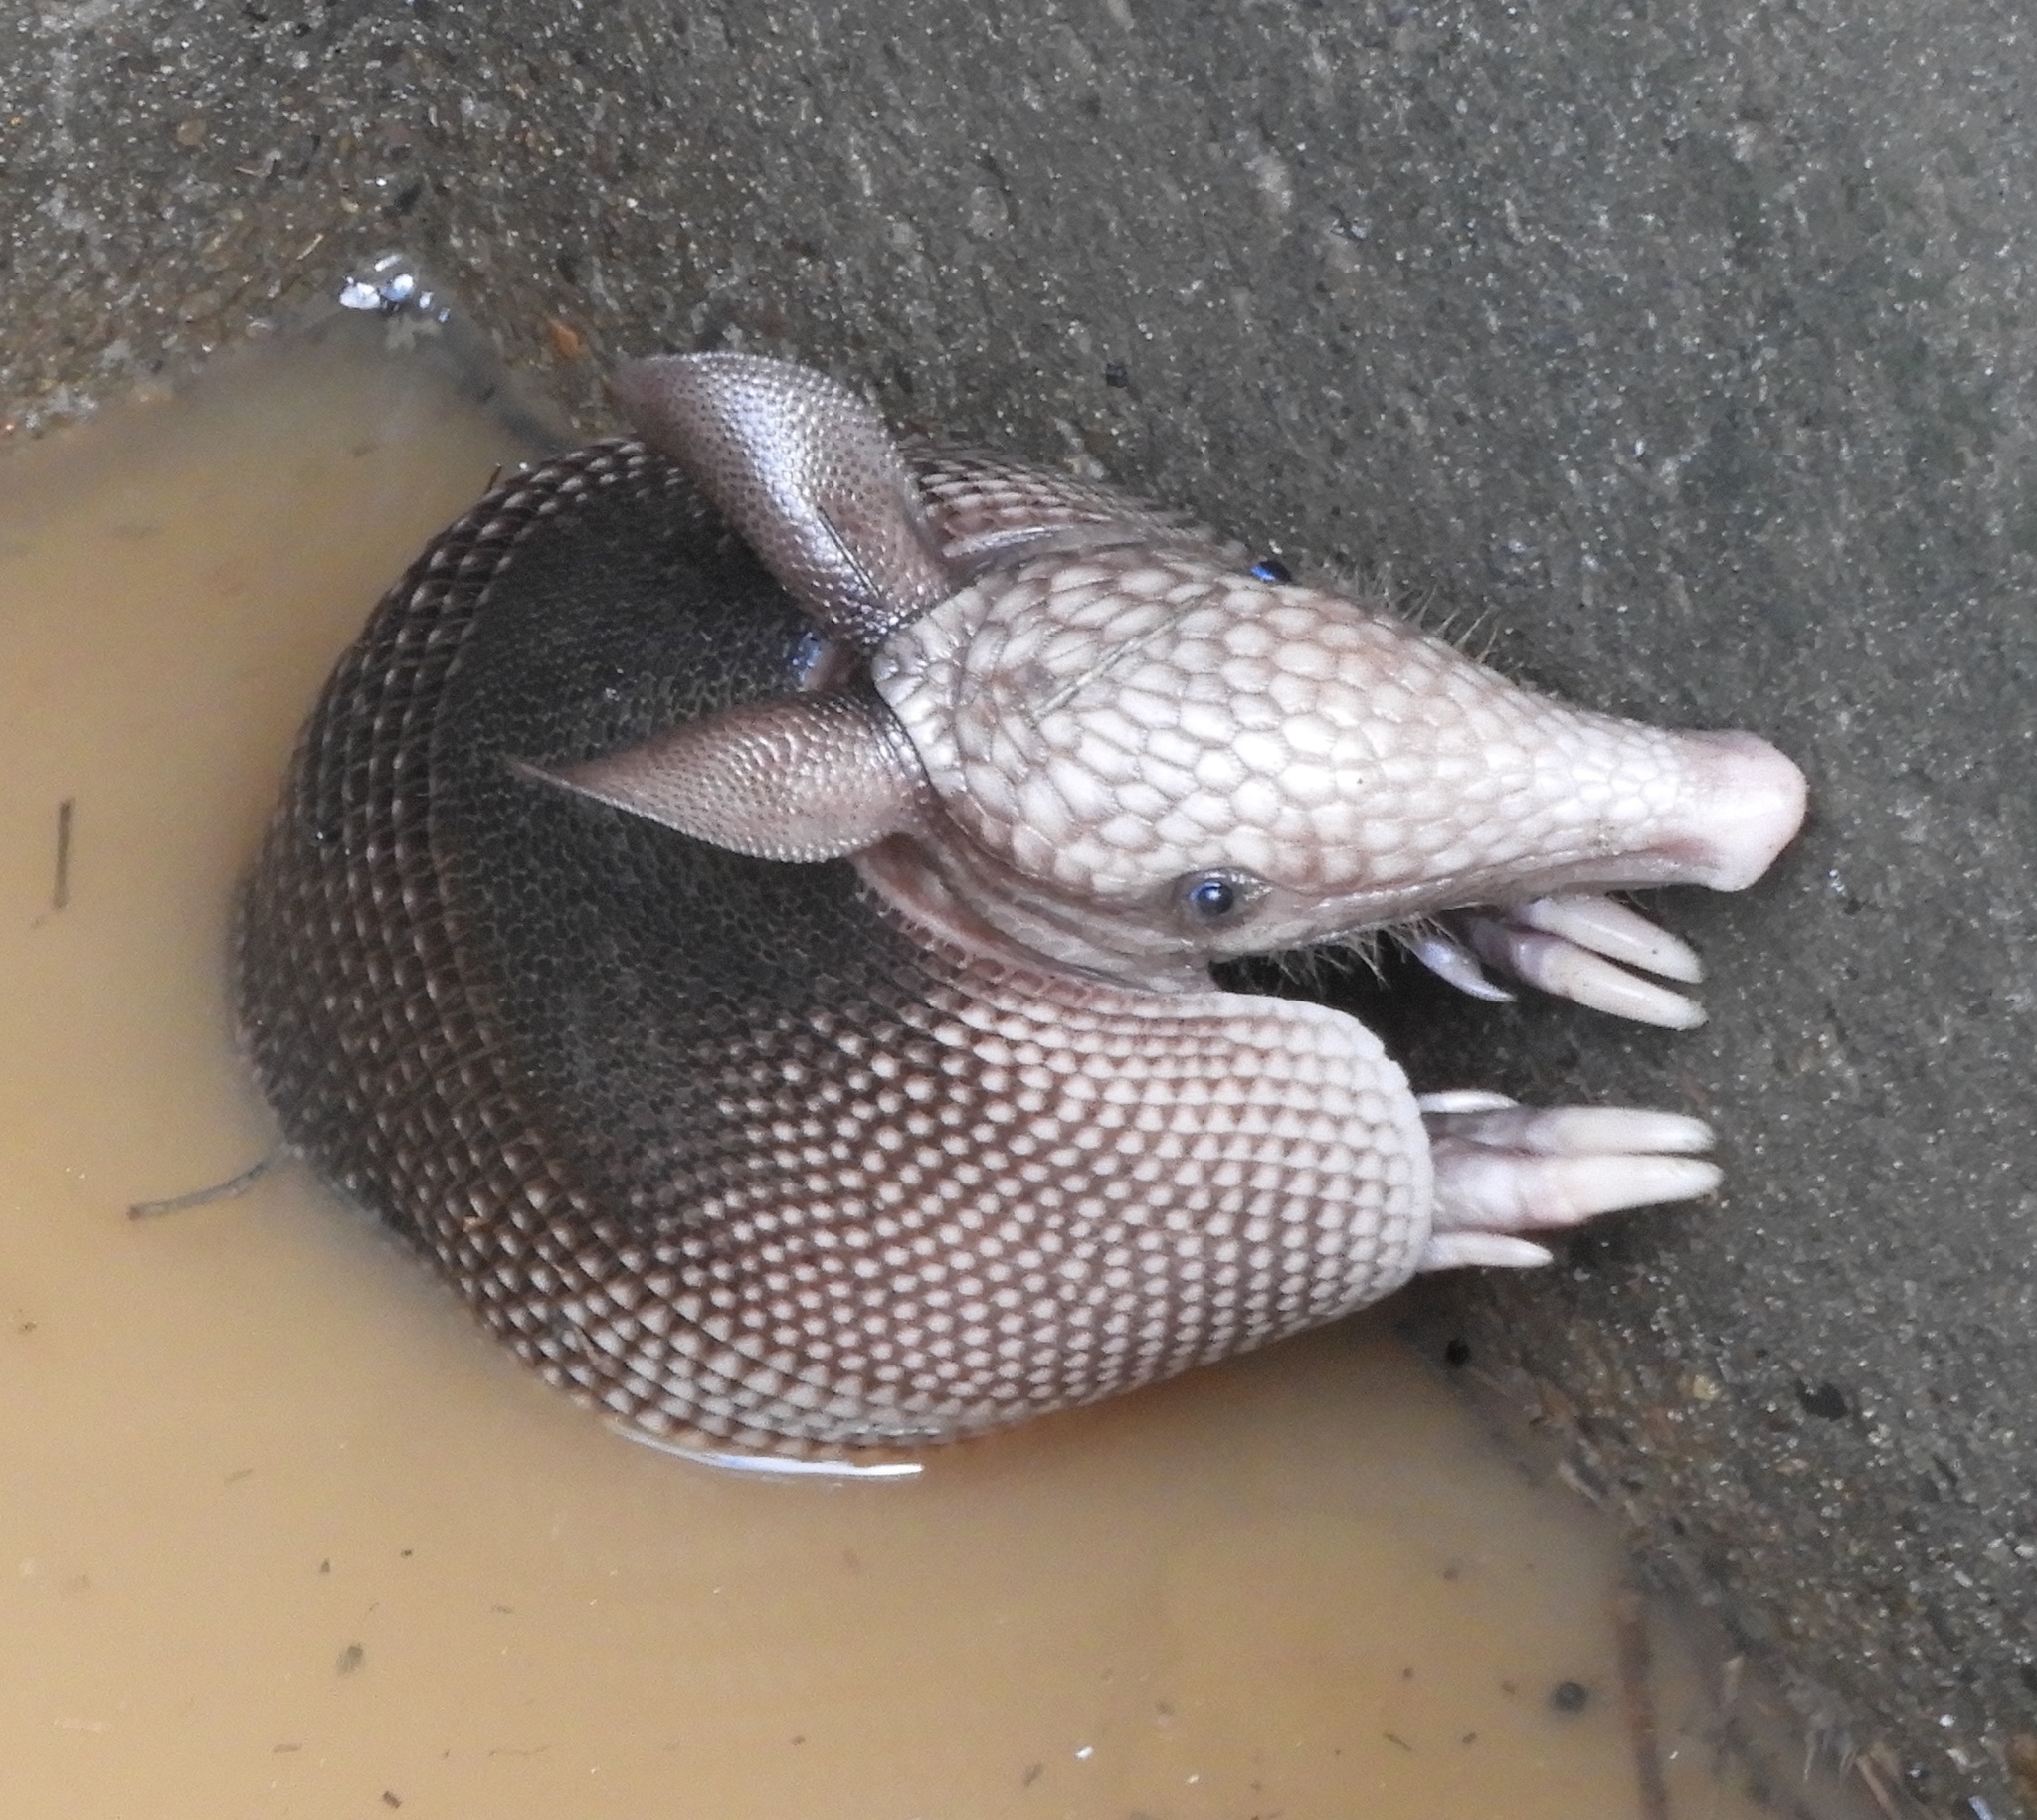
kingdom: Animalia
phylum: Chordata
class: Mammalia
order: Cingulata
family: Dasypodidae
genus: Dasypus
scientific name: Dasypus novemcinctus
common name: Nine-banded armadillo
